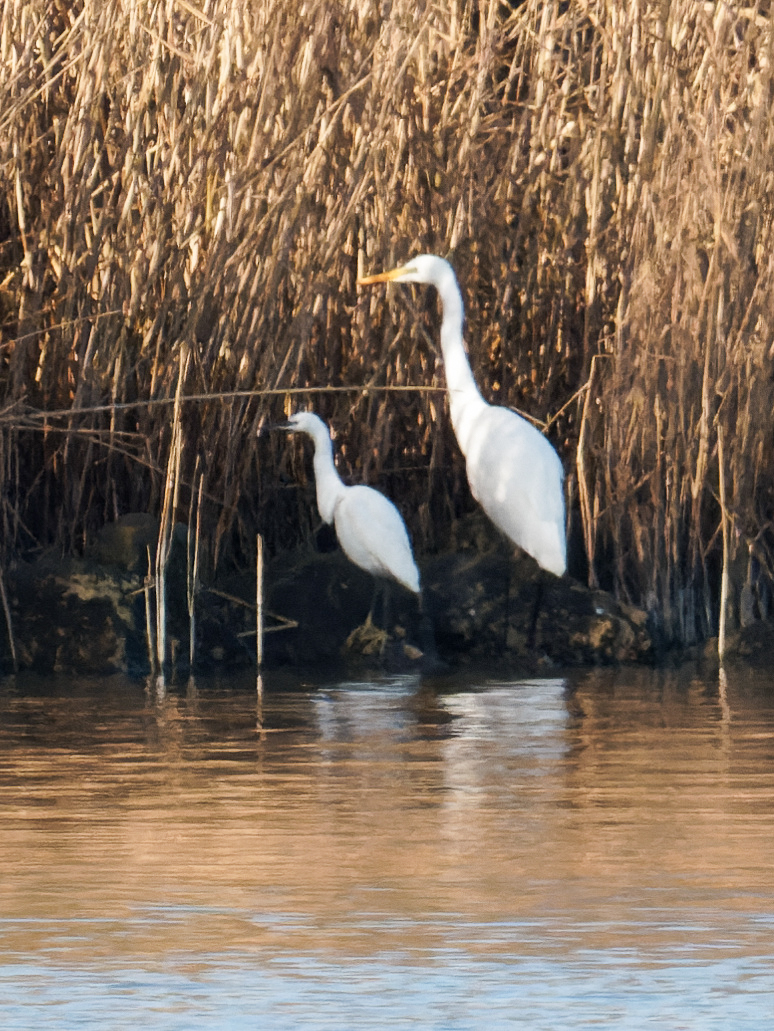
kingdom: Animalia
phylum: Chordata
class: Aves
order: Pelecaniformes
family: Ardeidae
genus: Egretta
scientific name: Egretta garzetta
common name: Little egret
